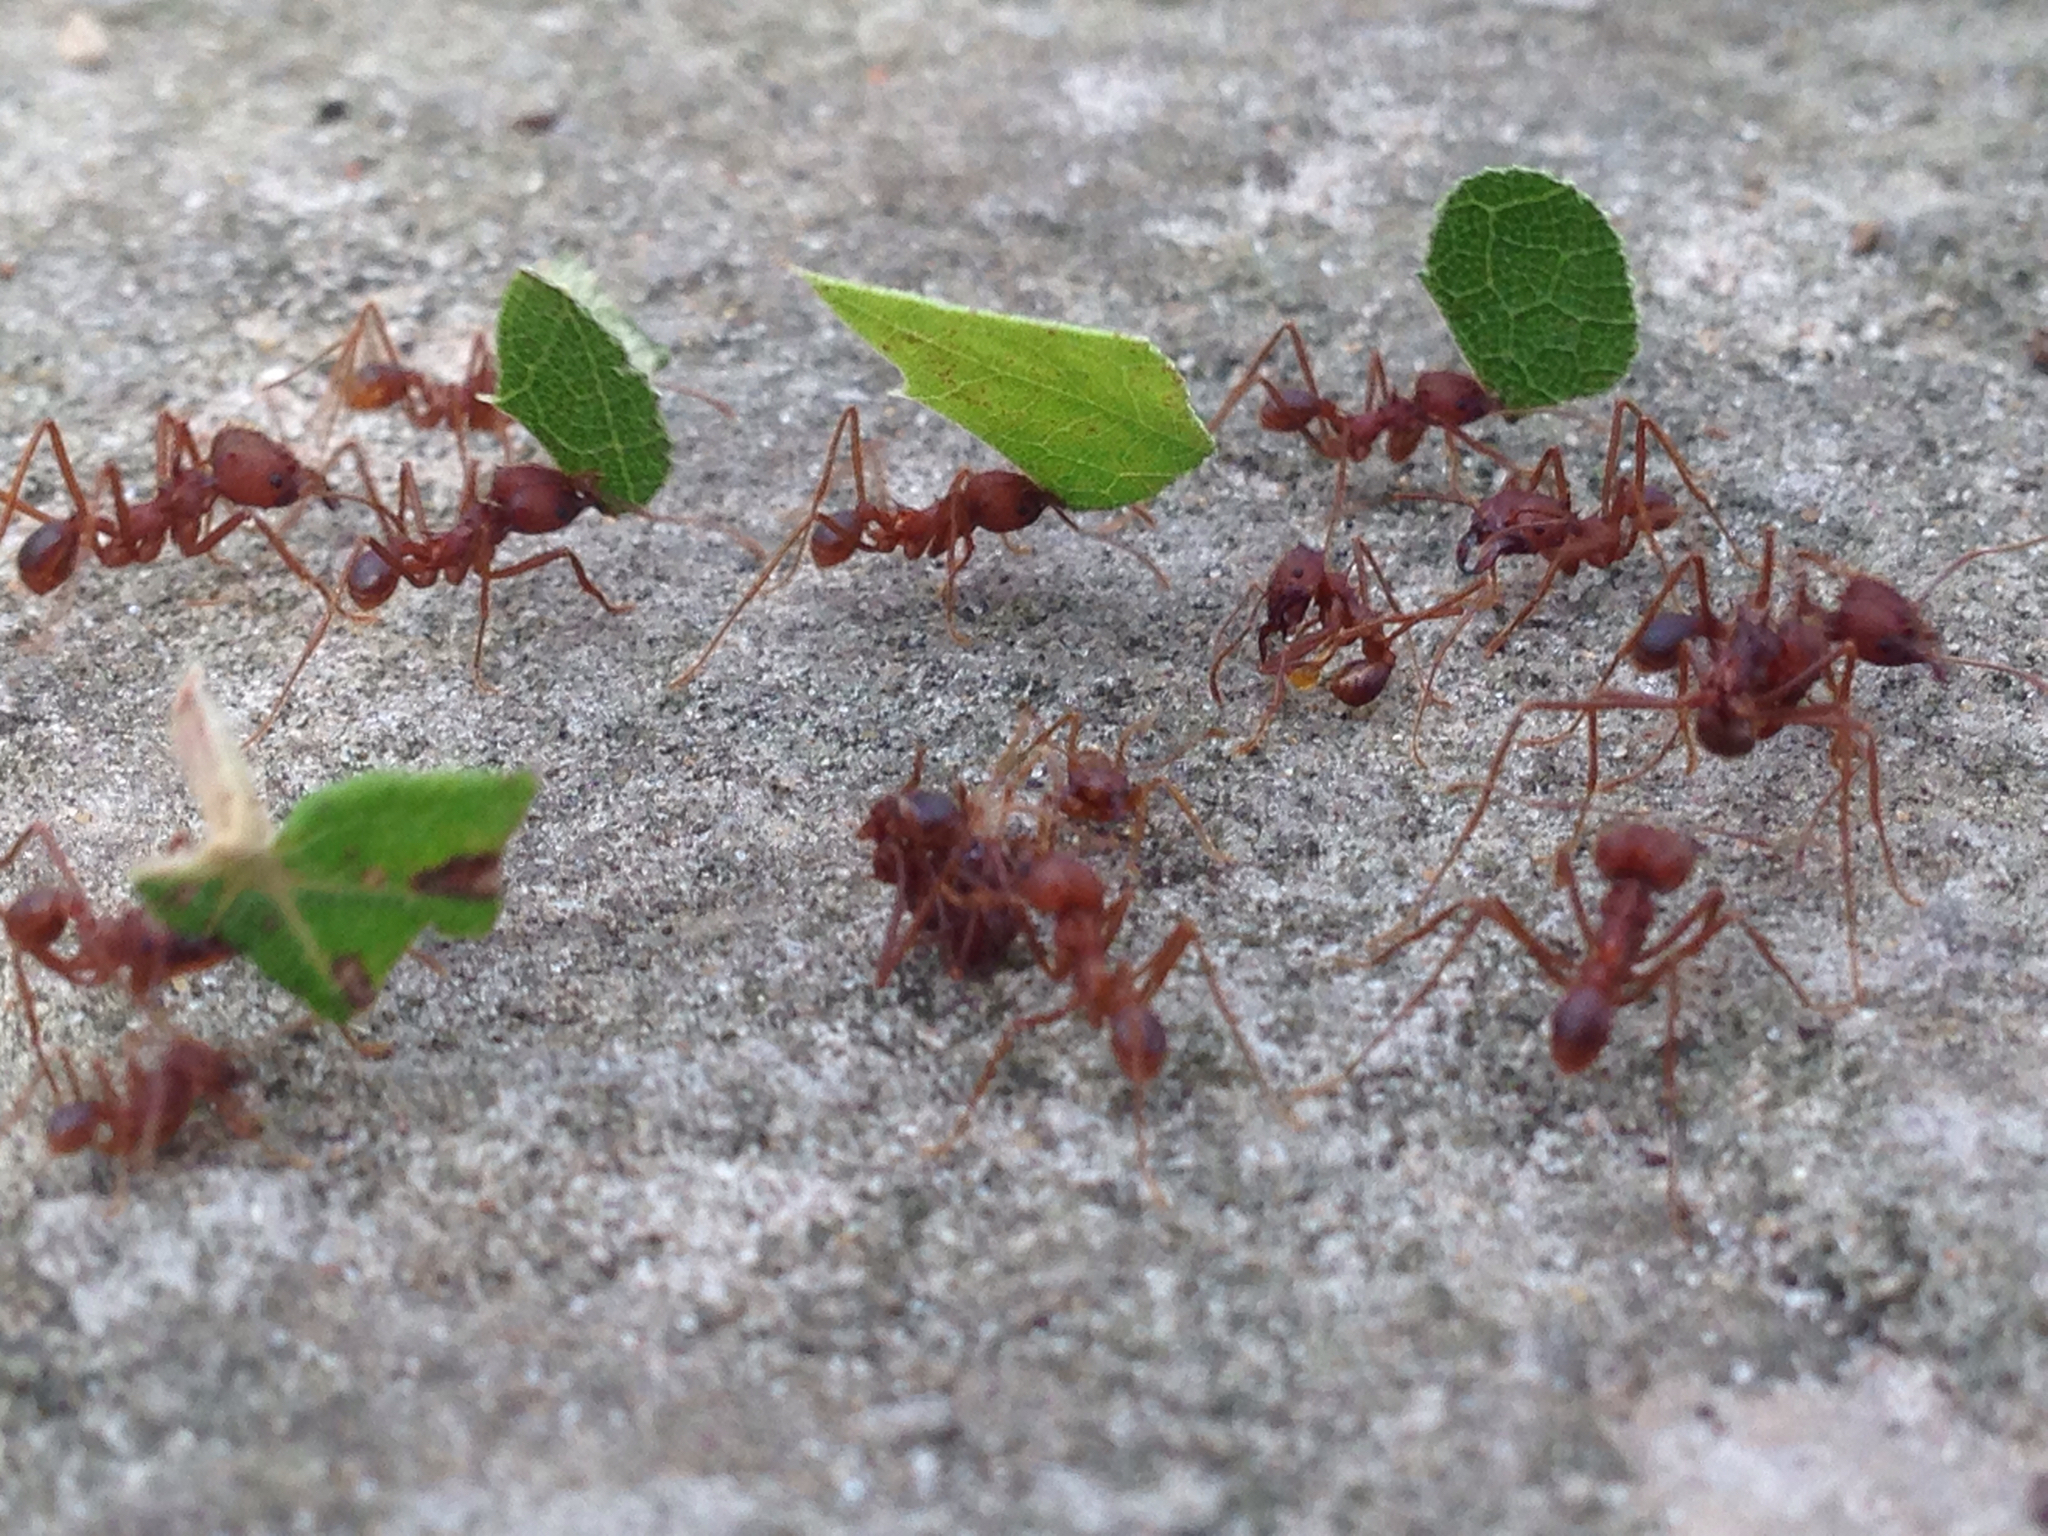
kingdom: Animalia
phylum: Arthropoda
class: Insecta
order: Hymenoptera
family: Formicidae
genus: Atta
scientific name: Atta texana
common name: Texas leafcutting ant
